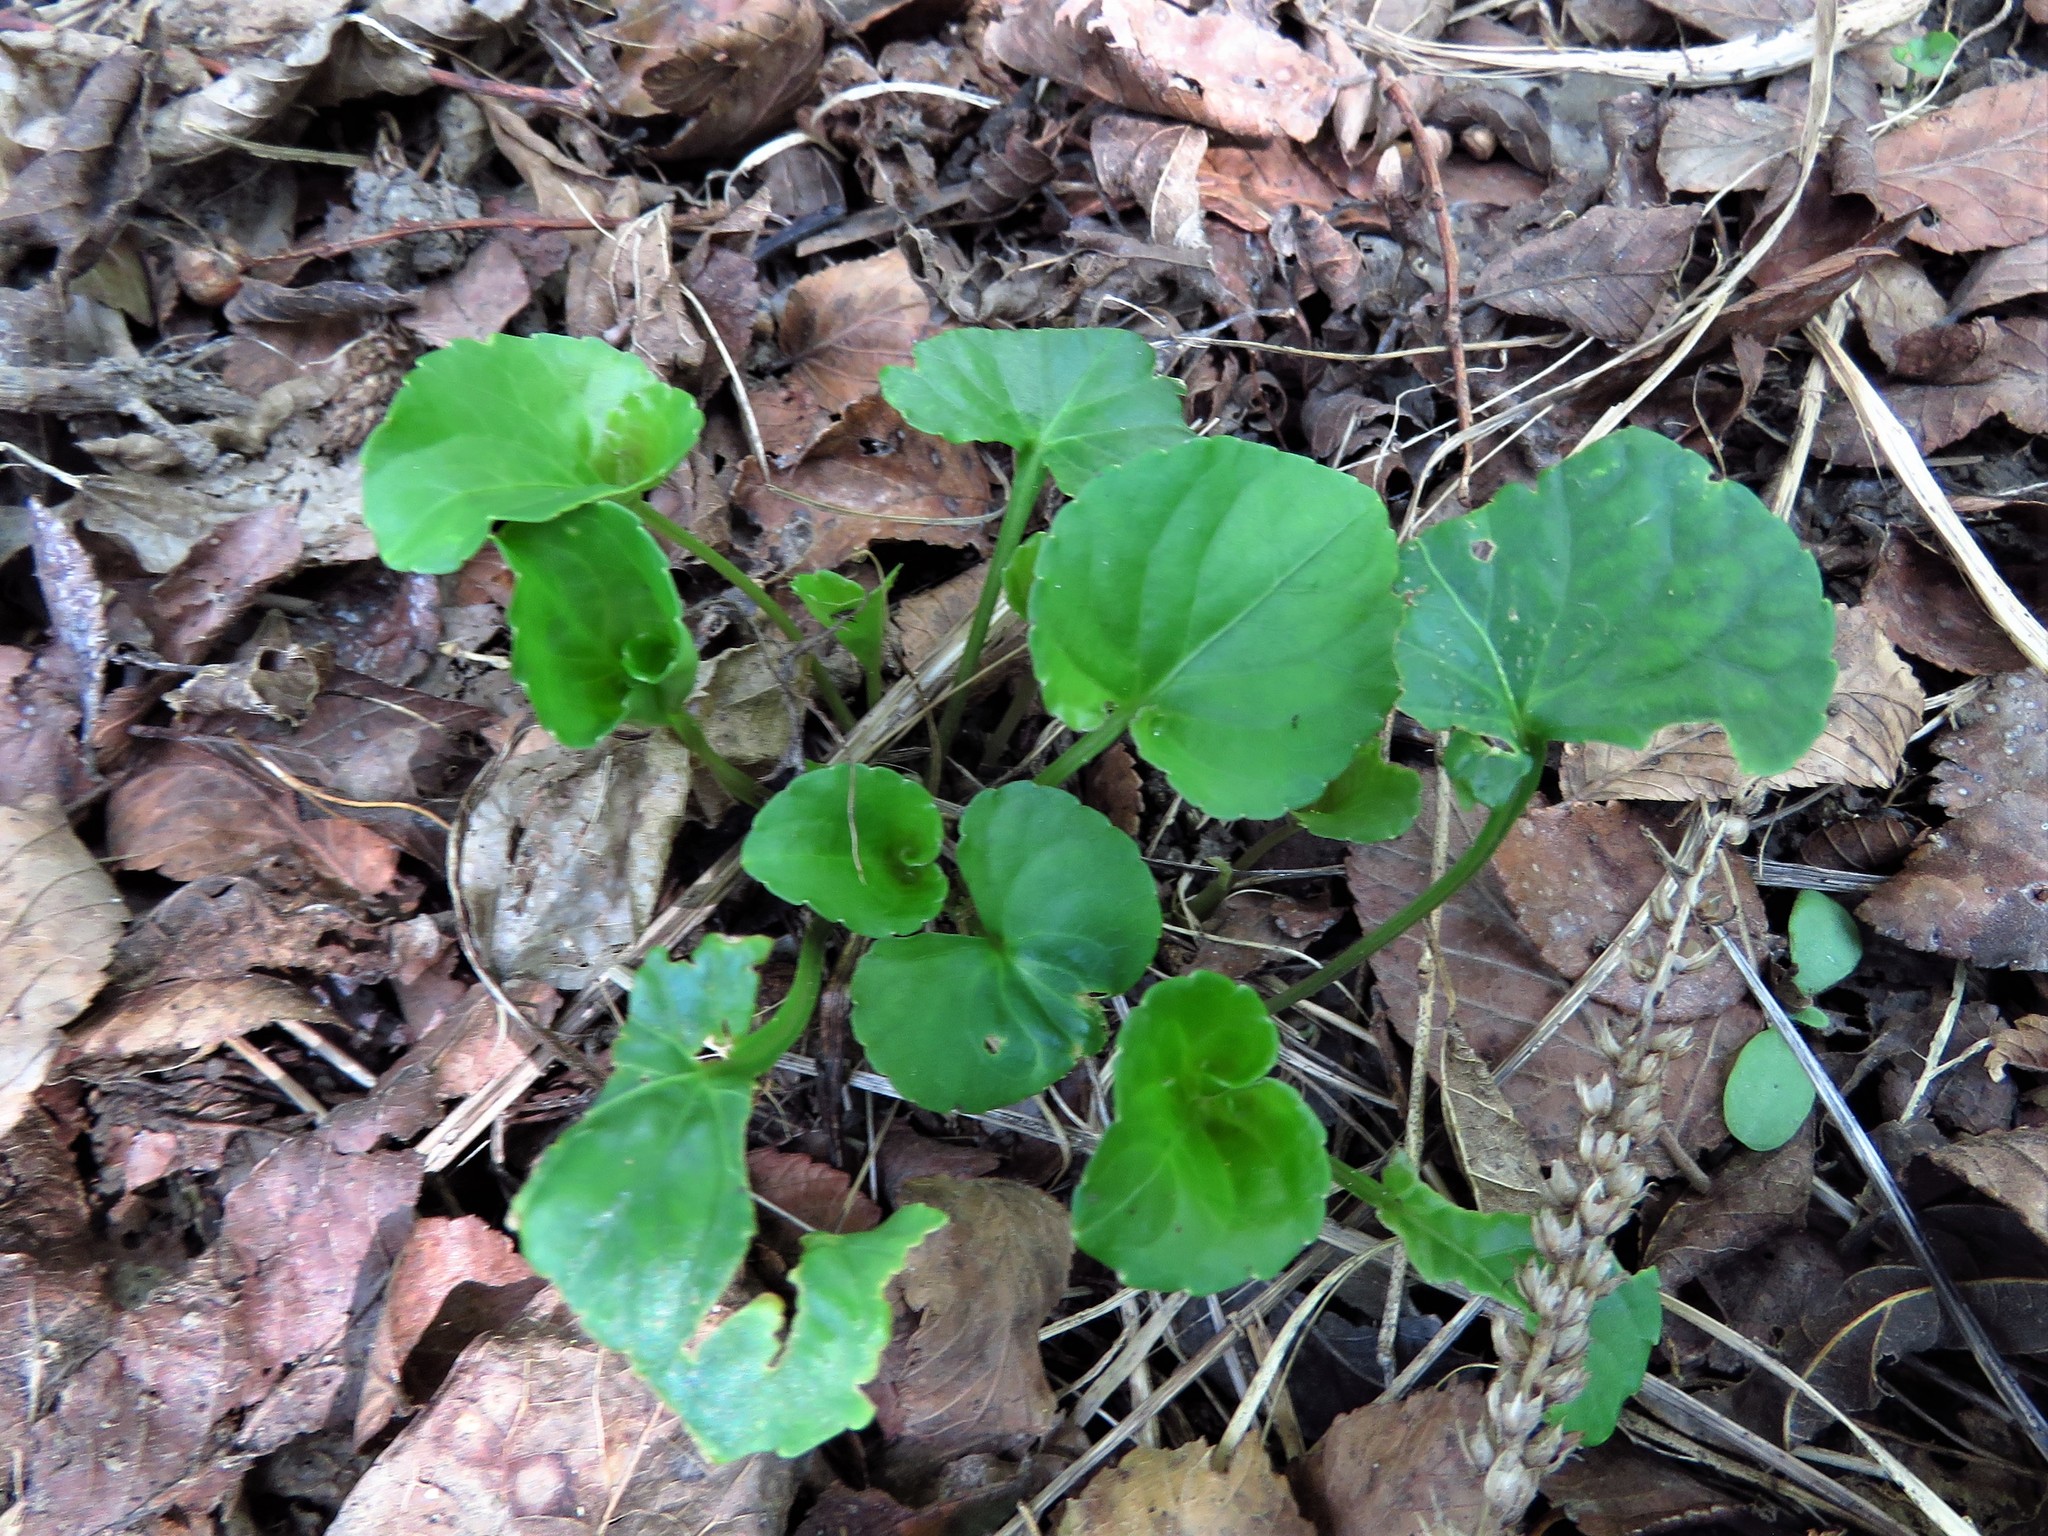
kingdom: Plantae
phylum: Tracheophyta
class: Magnoliopsida
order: Malpighiales
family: Violaceae
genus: Viola
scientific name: Viola sororia
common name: Dooryard violet
